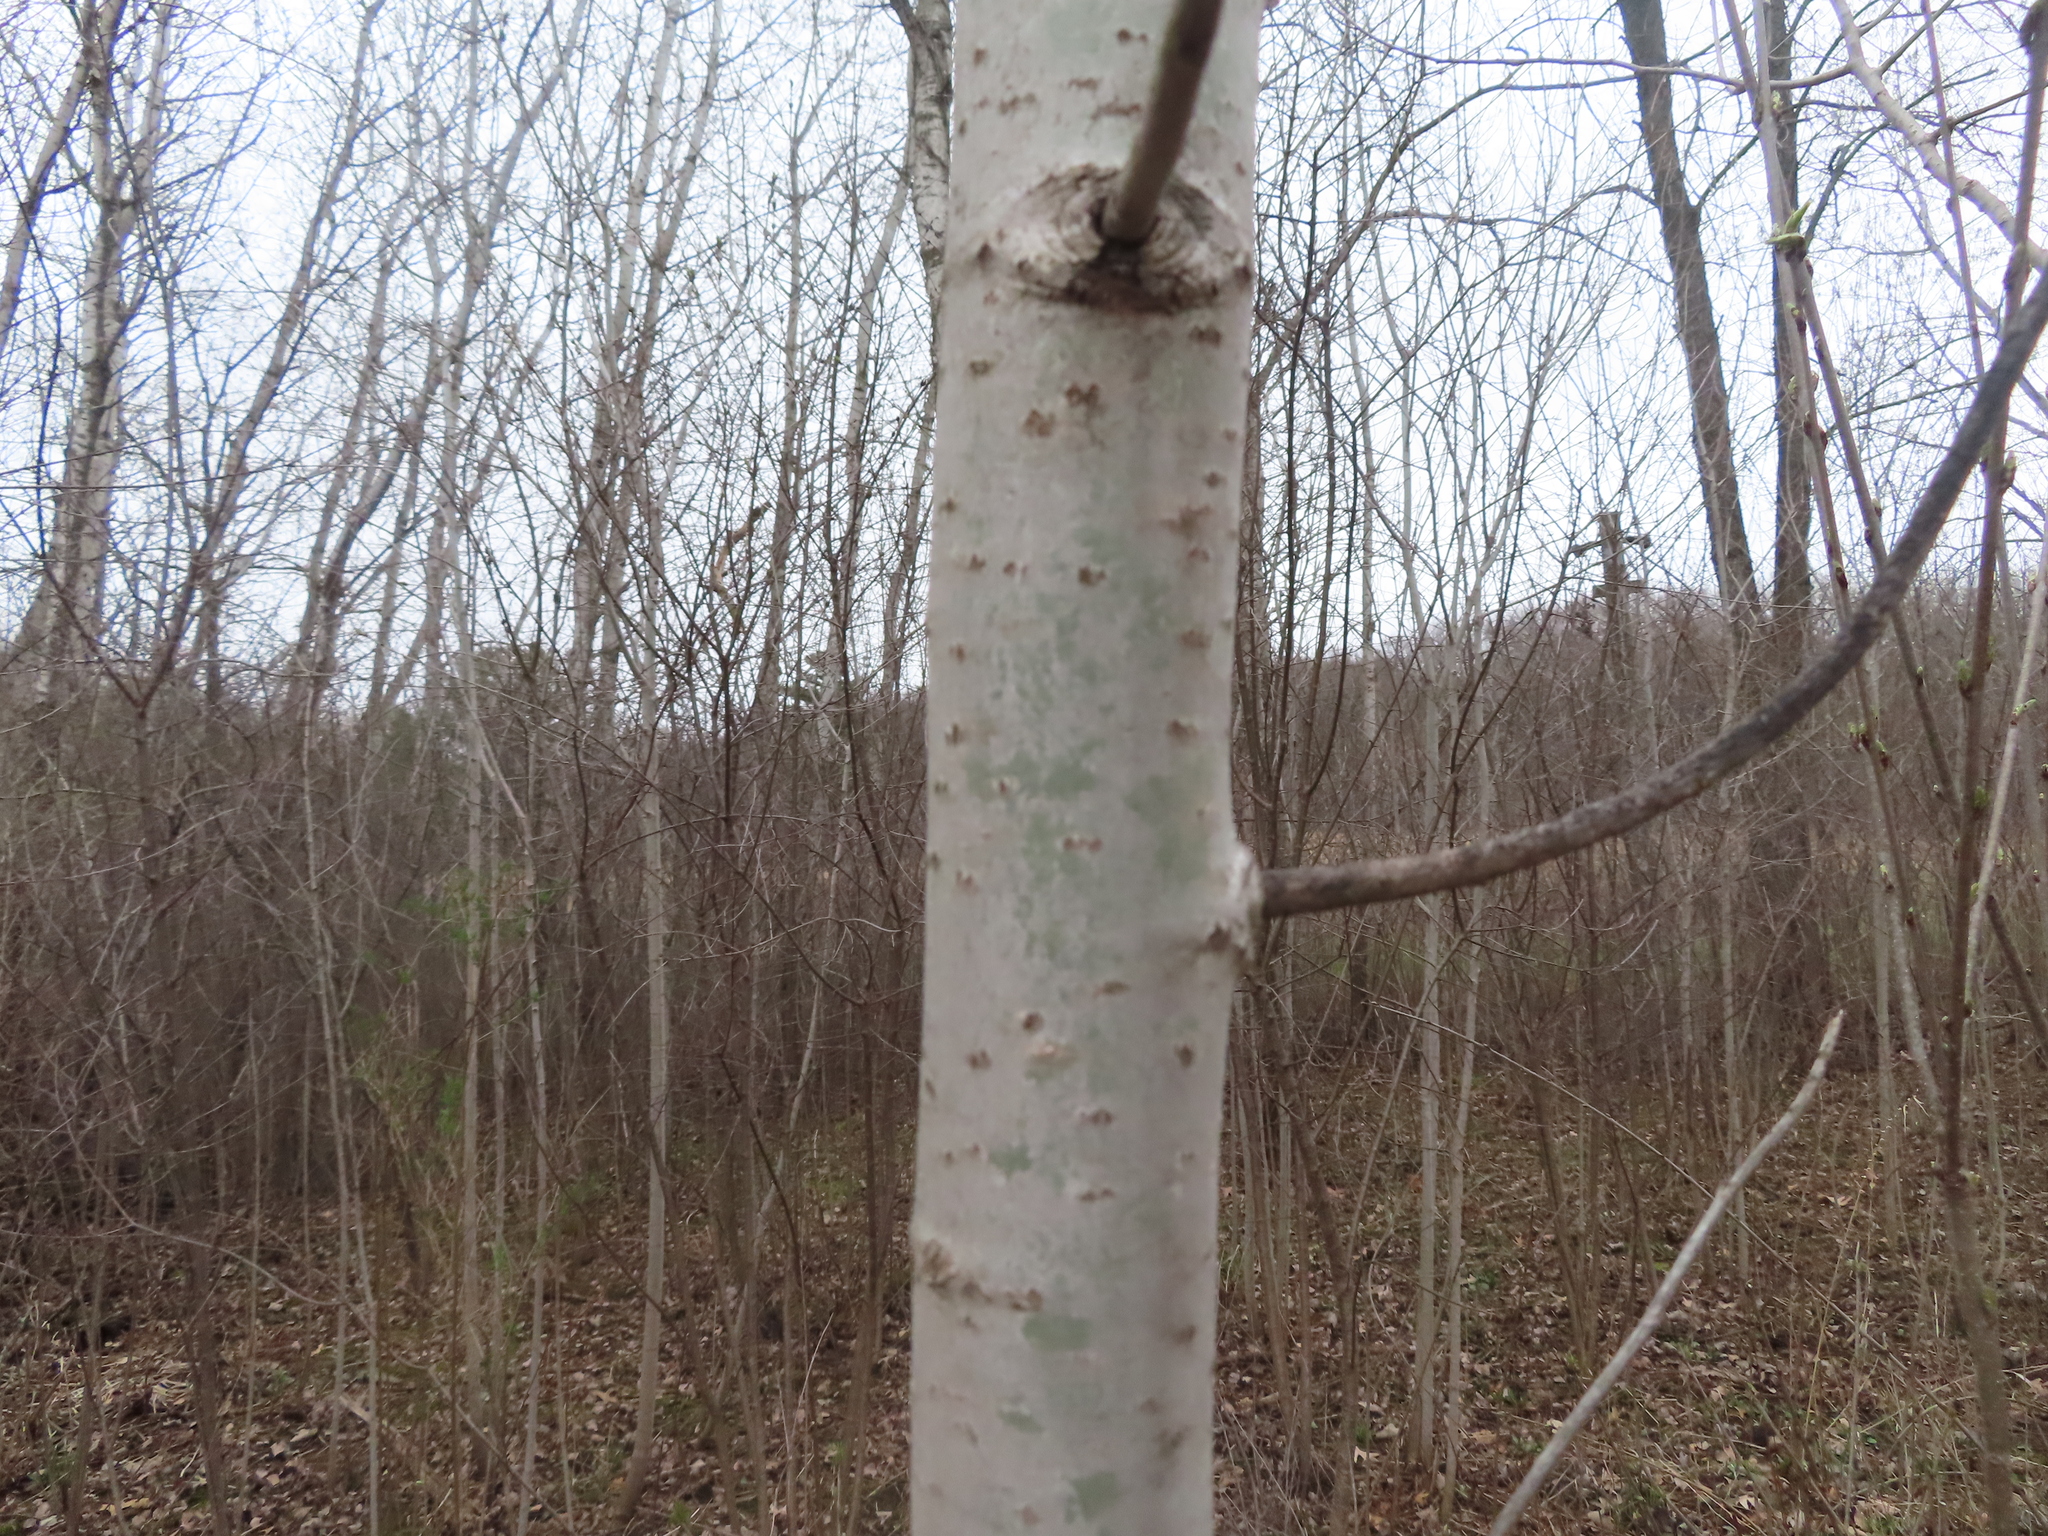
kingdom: Plantae
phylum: Tracheophyta
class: Magnoliopsida
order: Malpighiales
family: Salicaceae
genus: Populus
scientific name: Populus tremuloides
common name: Quaking aspen
